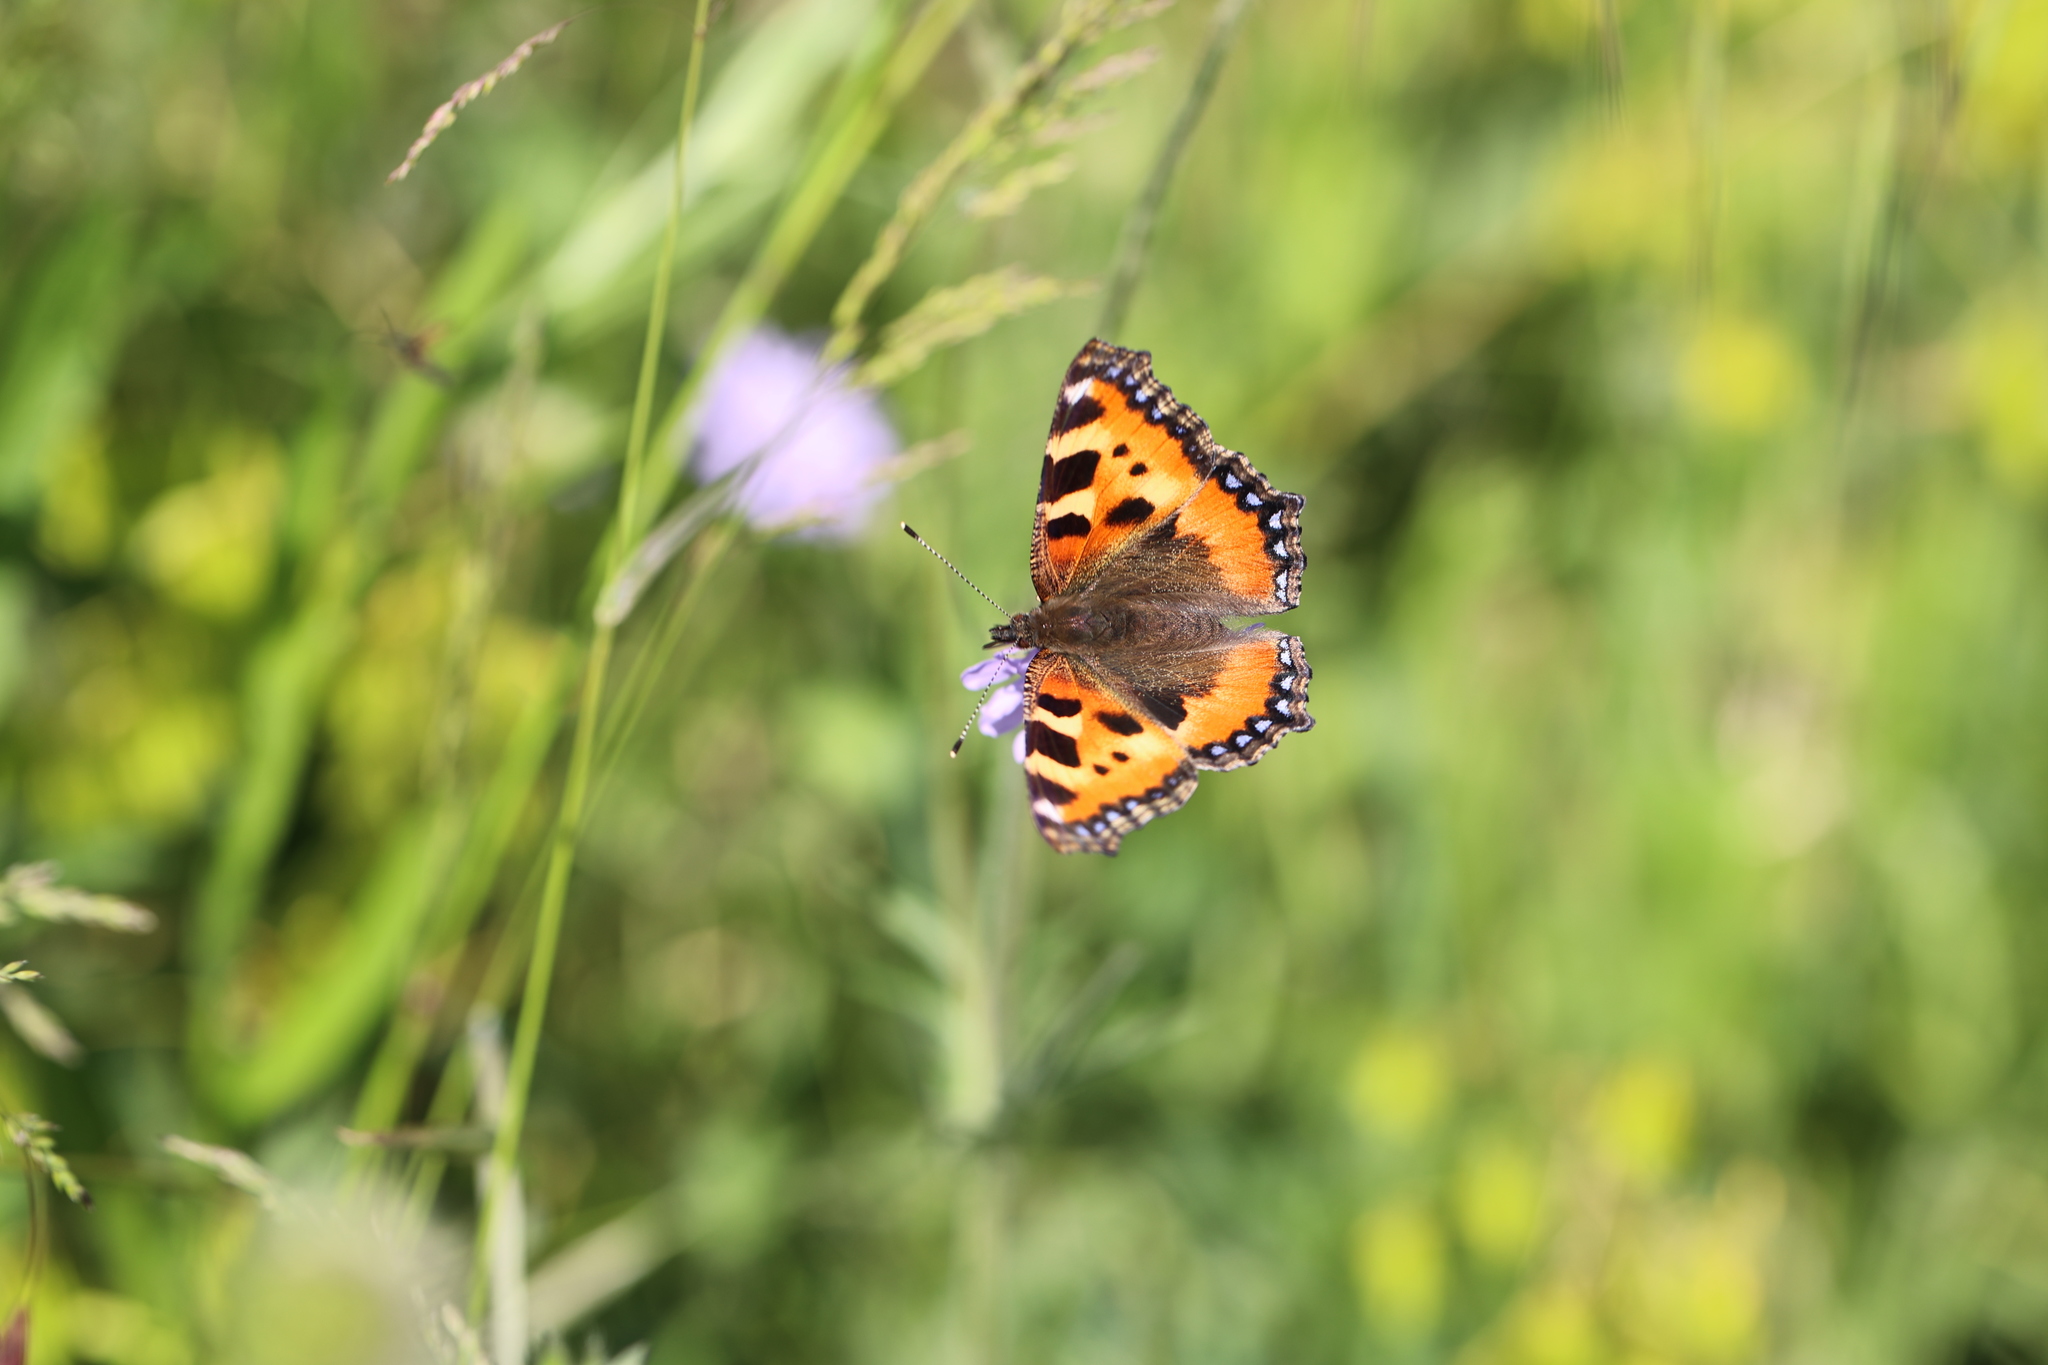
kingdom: Animalia
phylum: Arthropoda
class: Insecta
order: Lepidoptera
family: Nymphalidae
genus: Aglais
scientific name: Aglais urticae
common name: Small tortoiseshell
